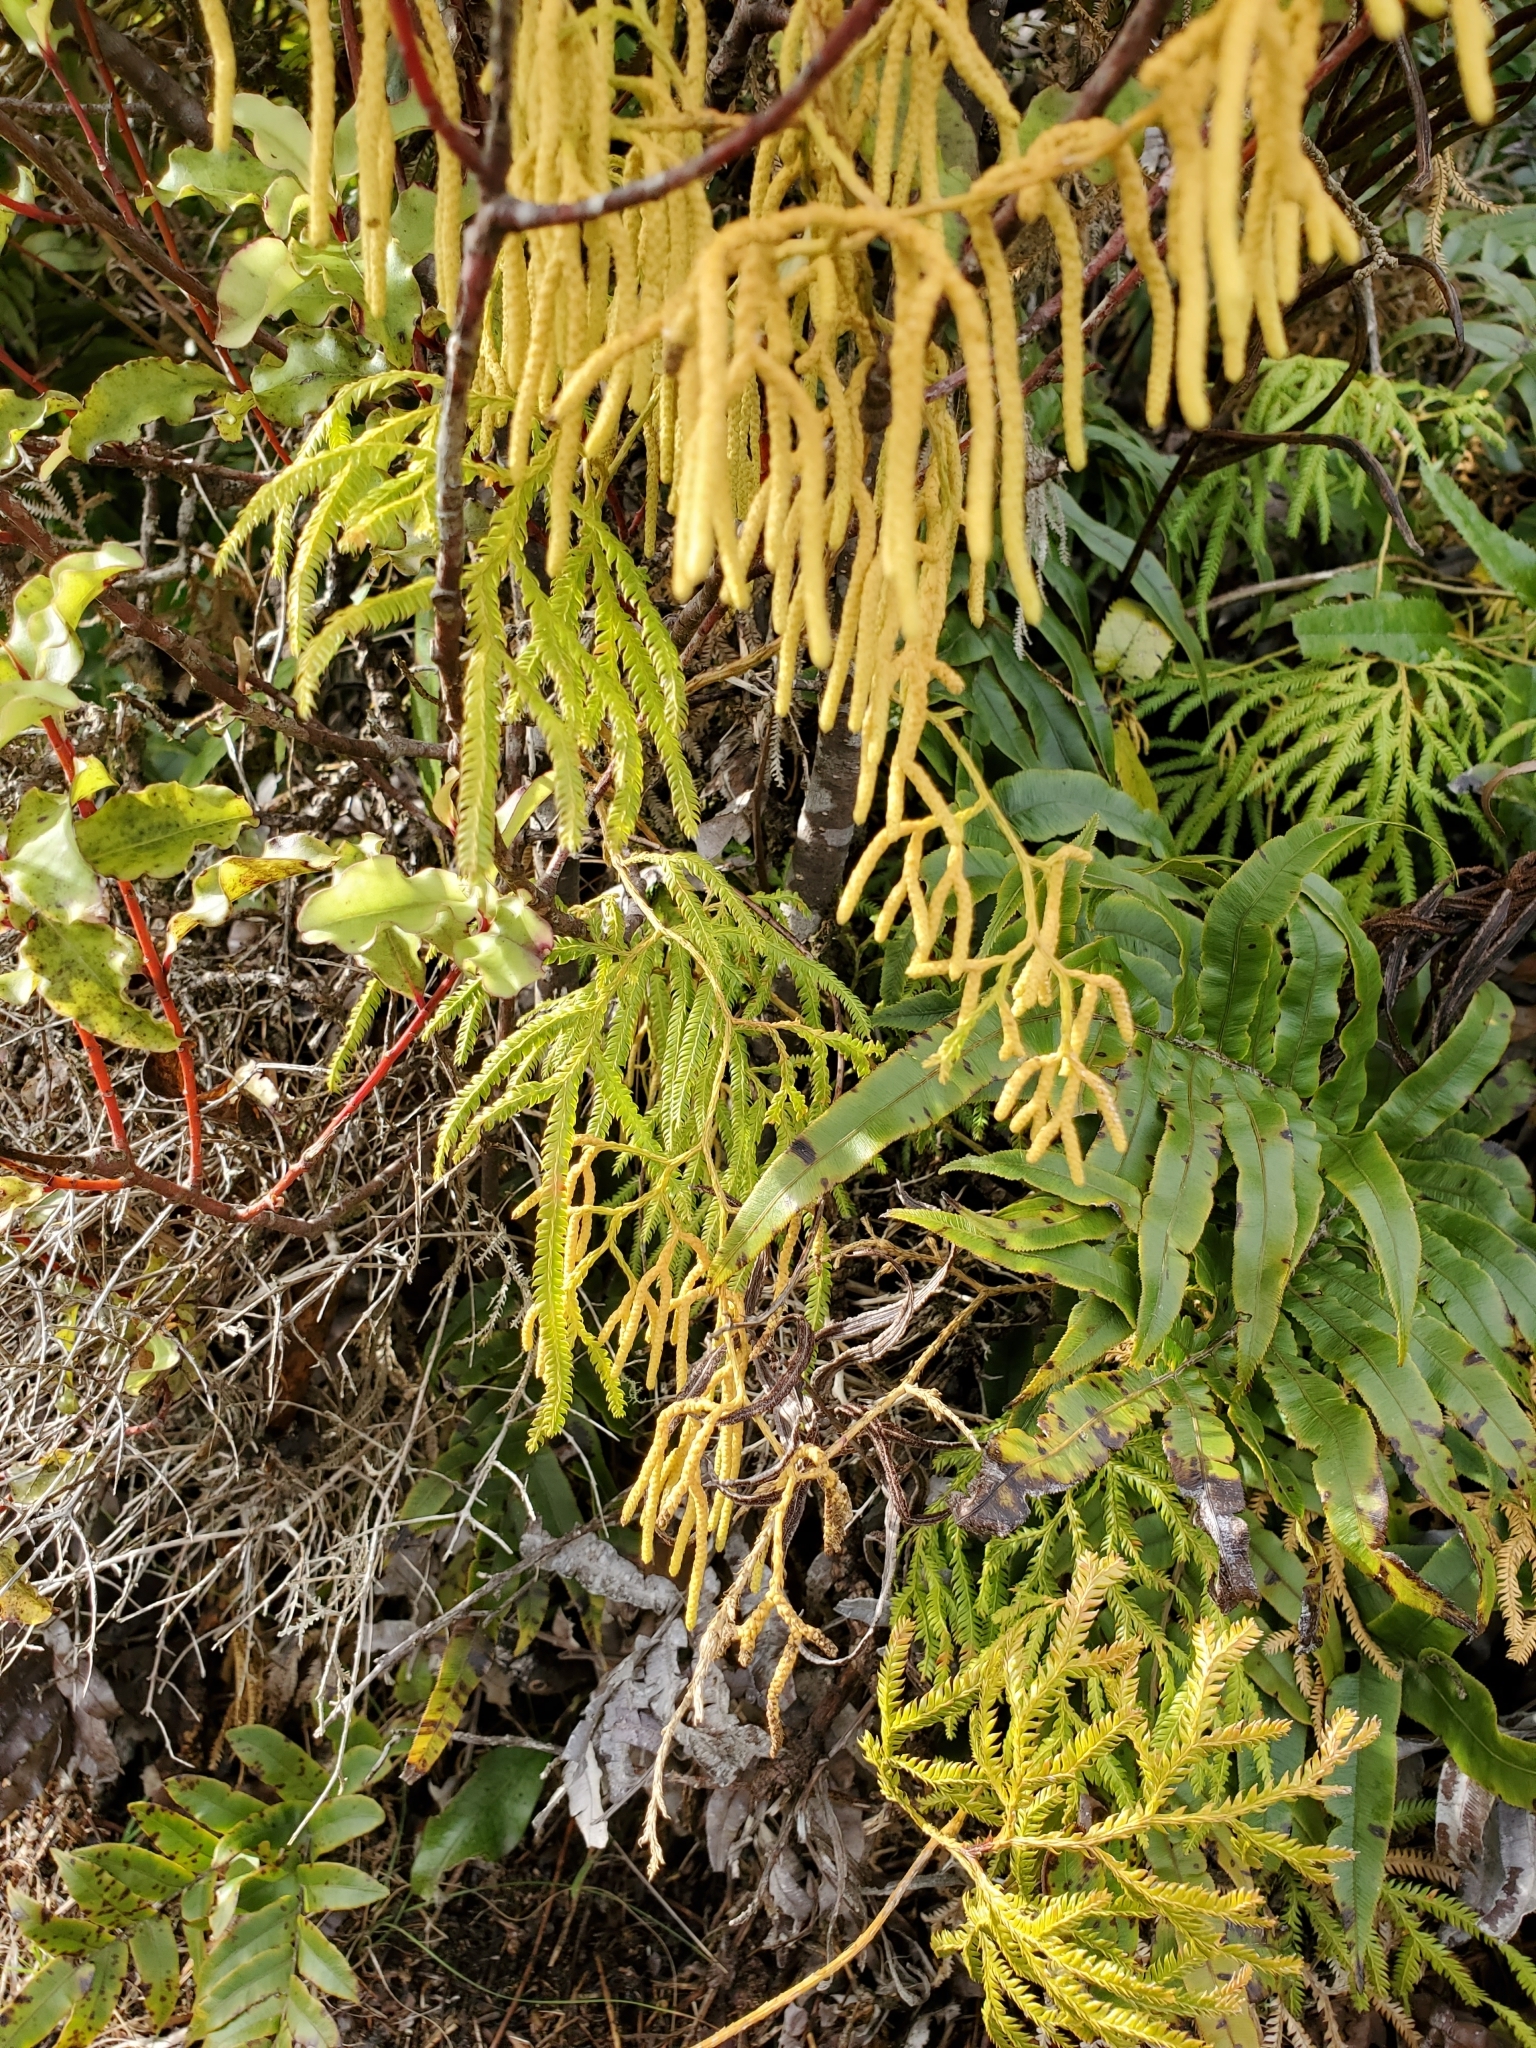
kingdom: Plantae
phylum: Tracheophyta
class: Lycopodiopsida
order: Lycopodiales
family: Lycopodiaceae
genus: Lycopodium
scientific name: Lycopodium volubile
